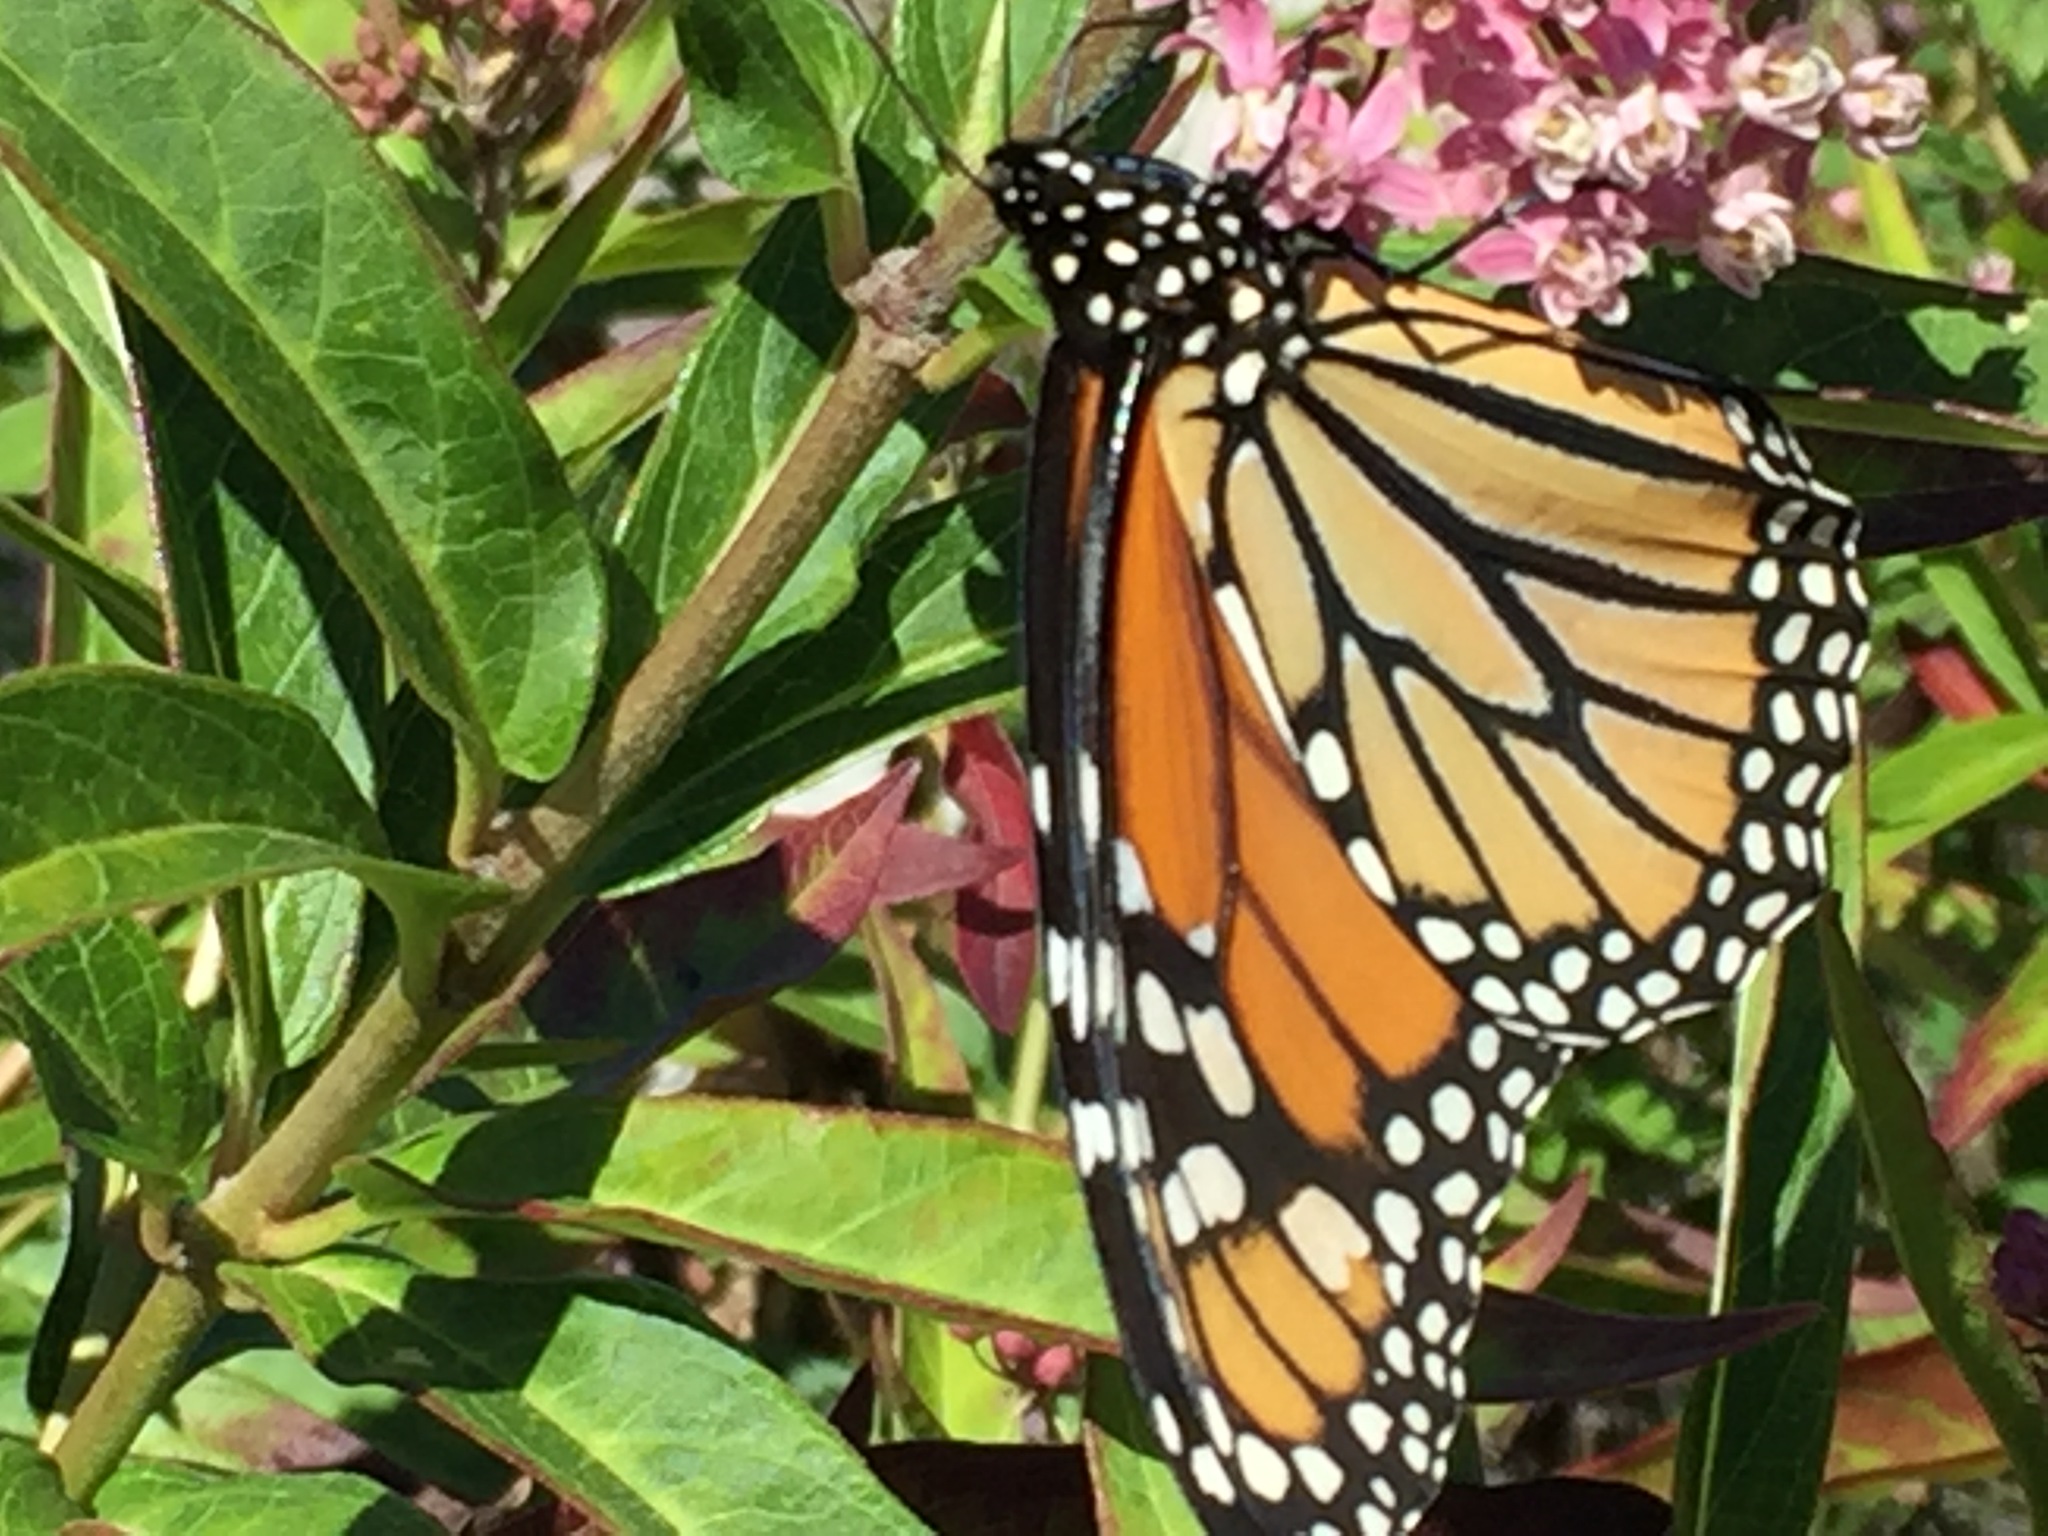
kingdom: Animalia
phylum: Arthropoda
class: Insecta
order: Lepidoptera
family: Nymphalidae
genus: Danaus
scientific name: Danaus plexippus
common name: Monarch
